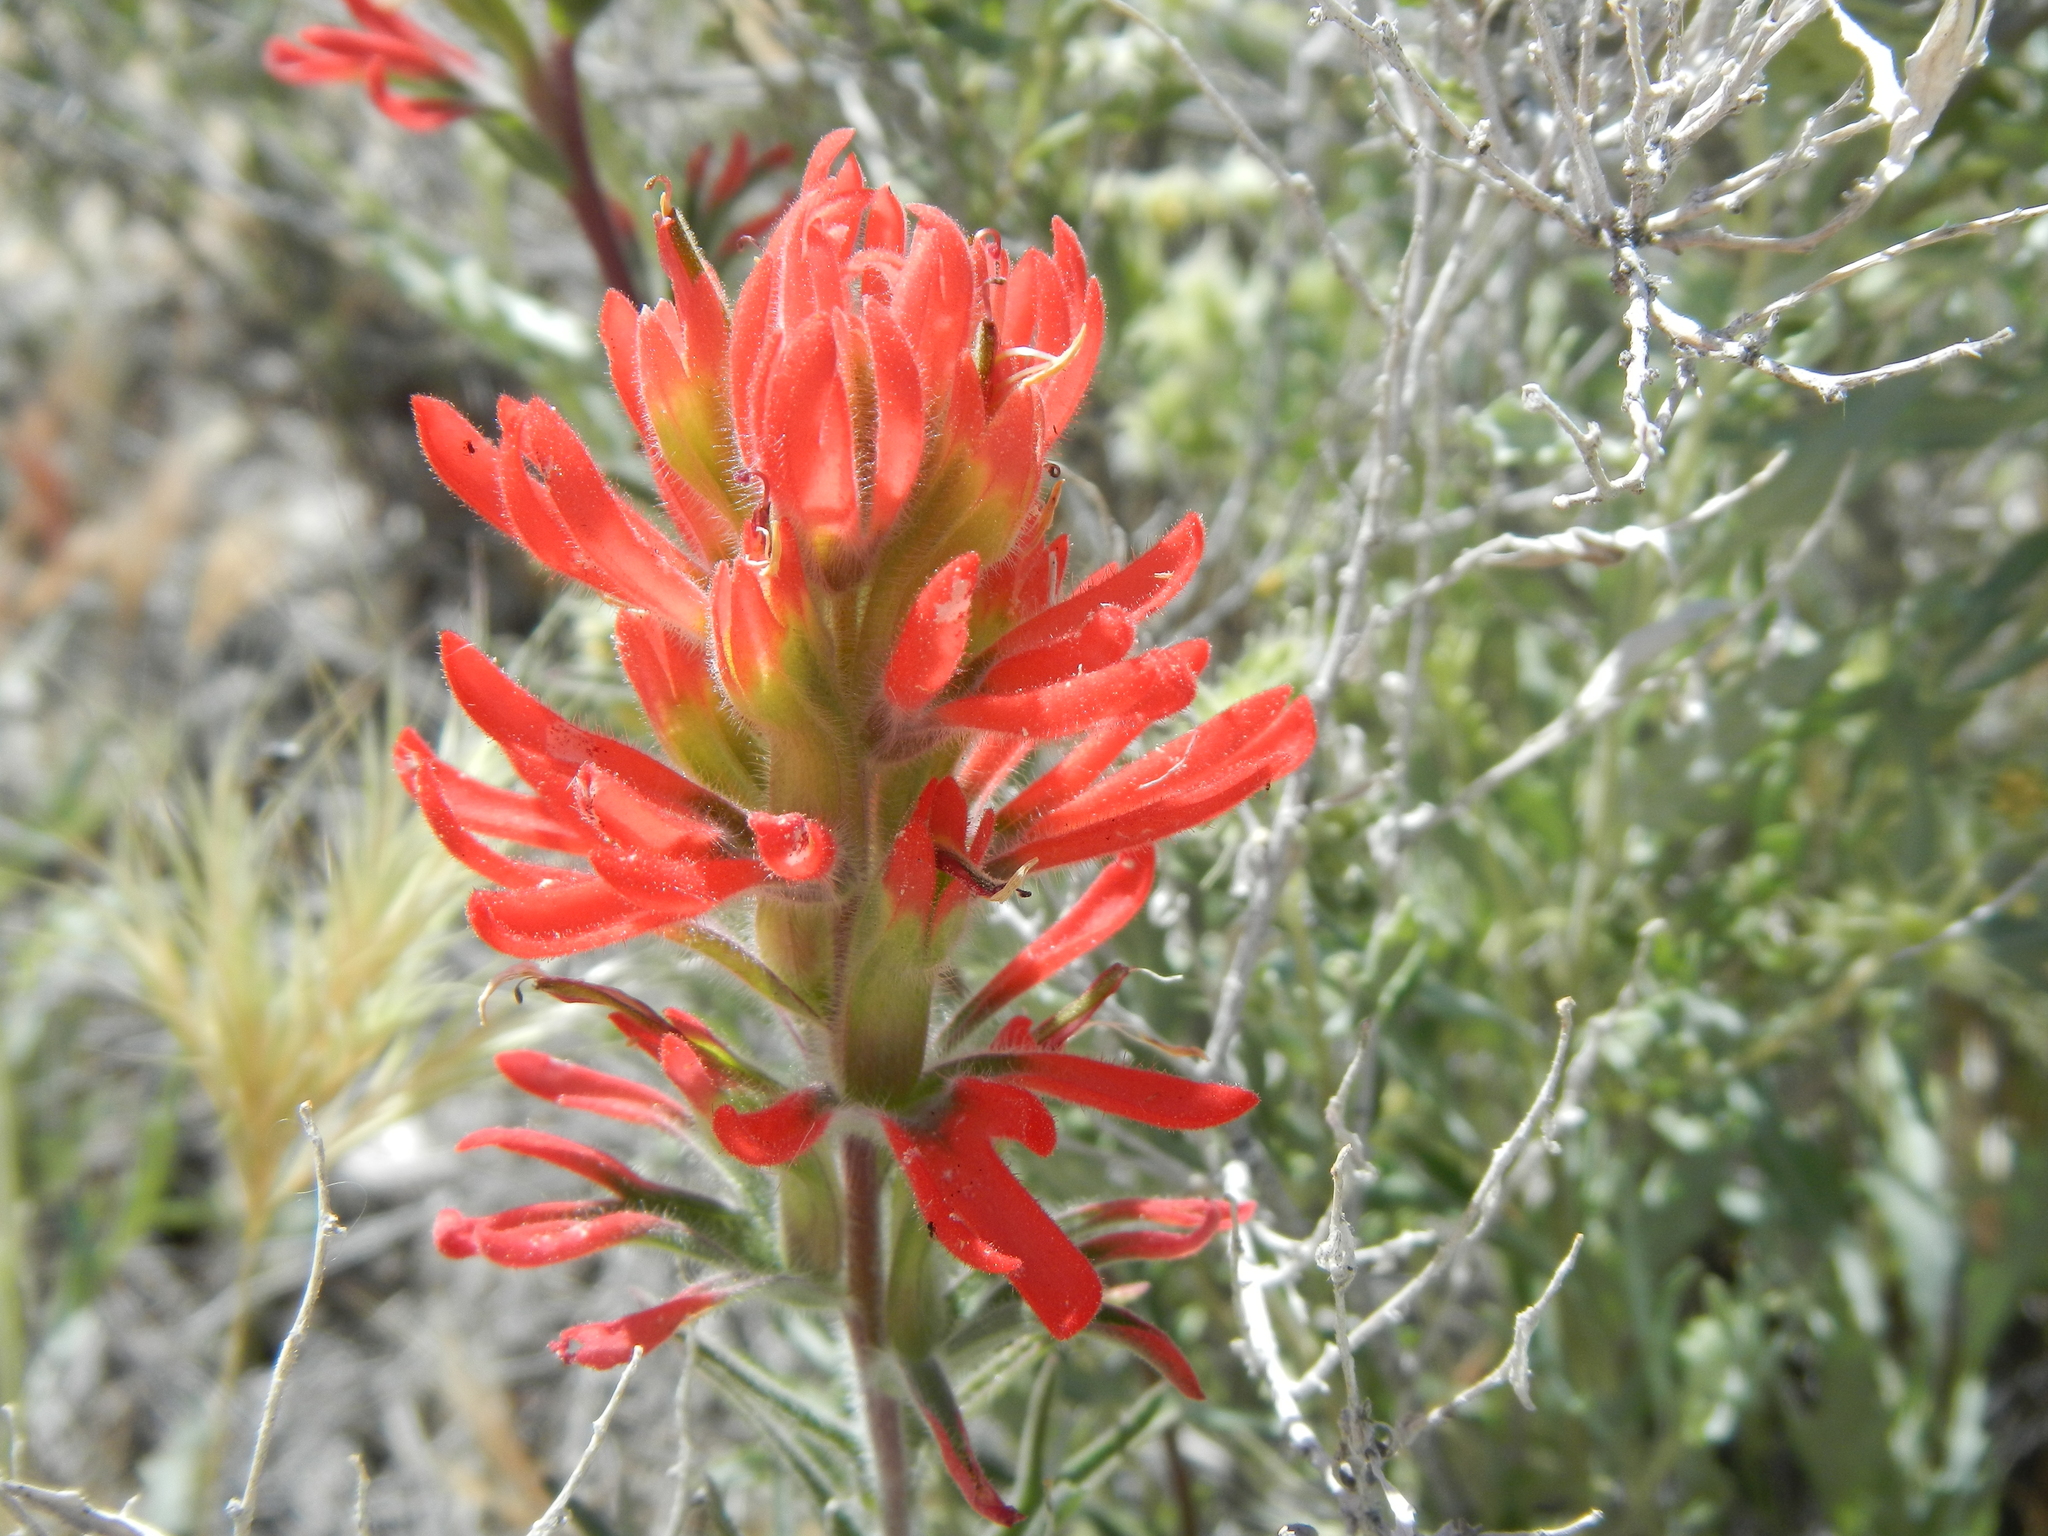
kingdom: Plantae
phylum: Tracheophyta
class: Magnoliopsida
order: Lamiales
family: Orobanchaceae
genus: Castilleja
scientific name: Castilleja chromosa
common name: Desert paintbrush
